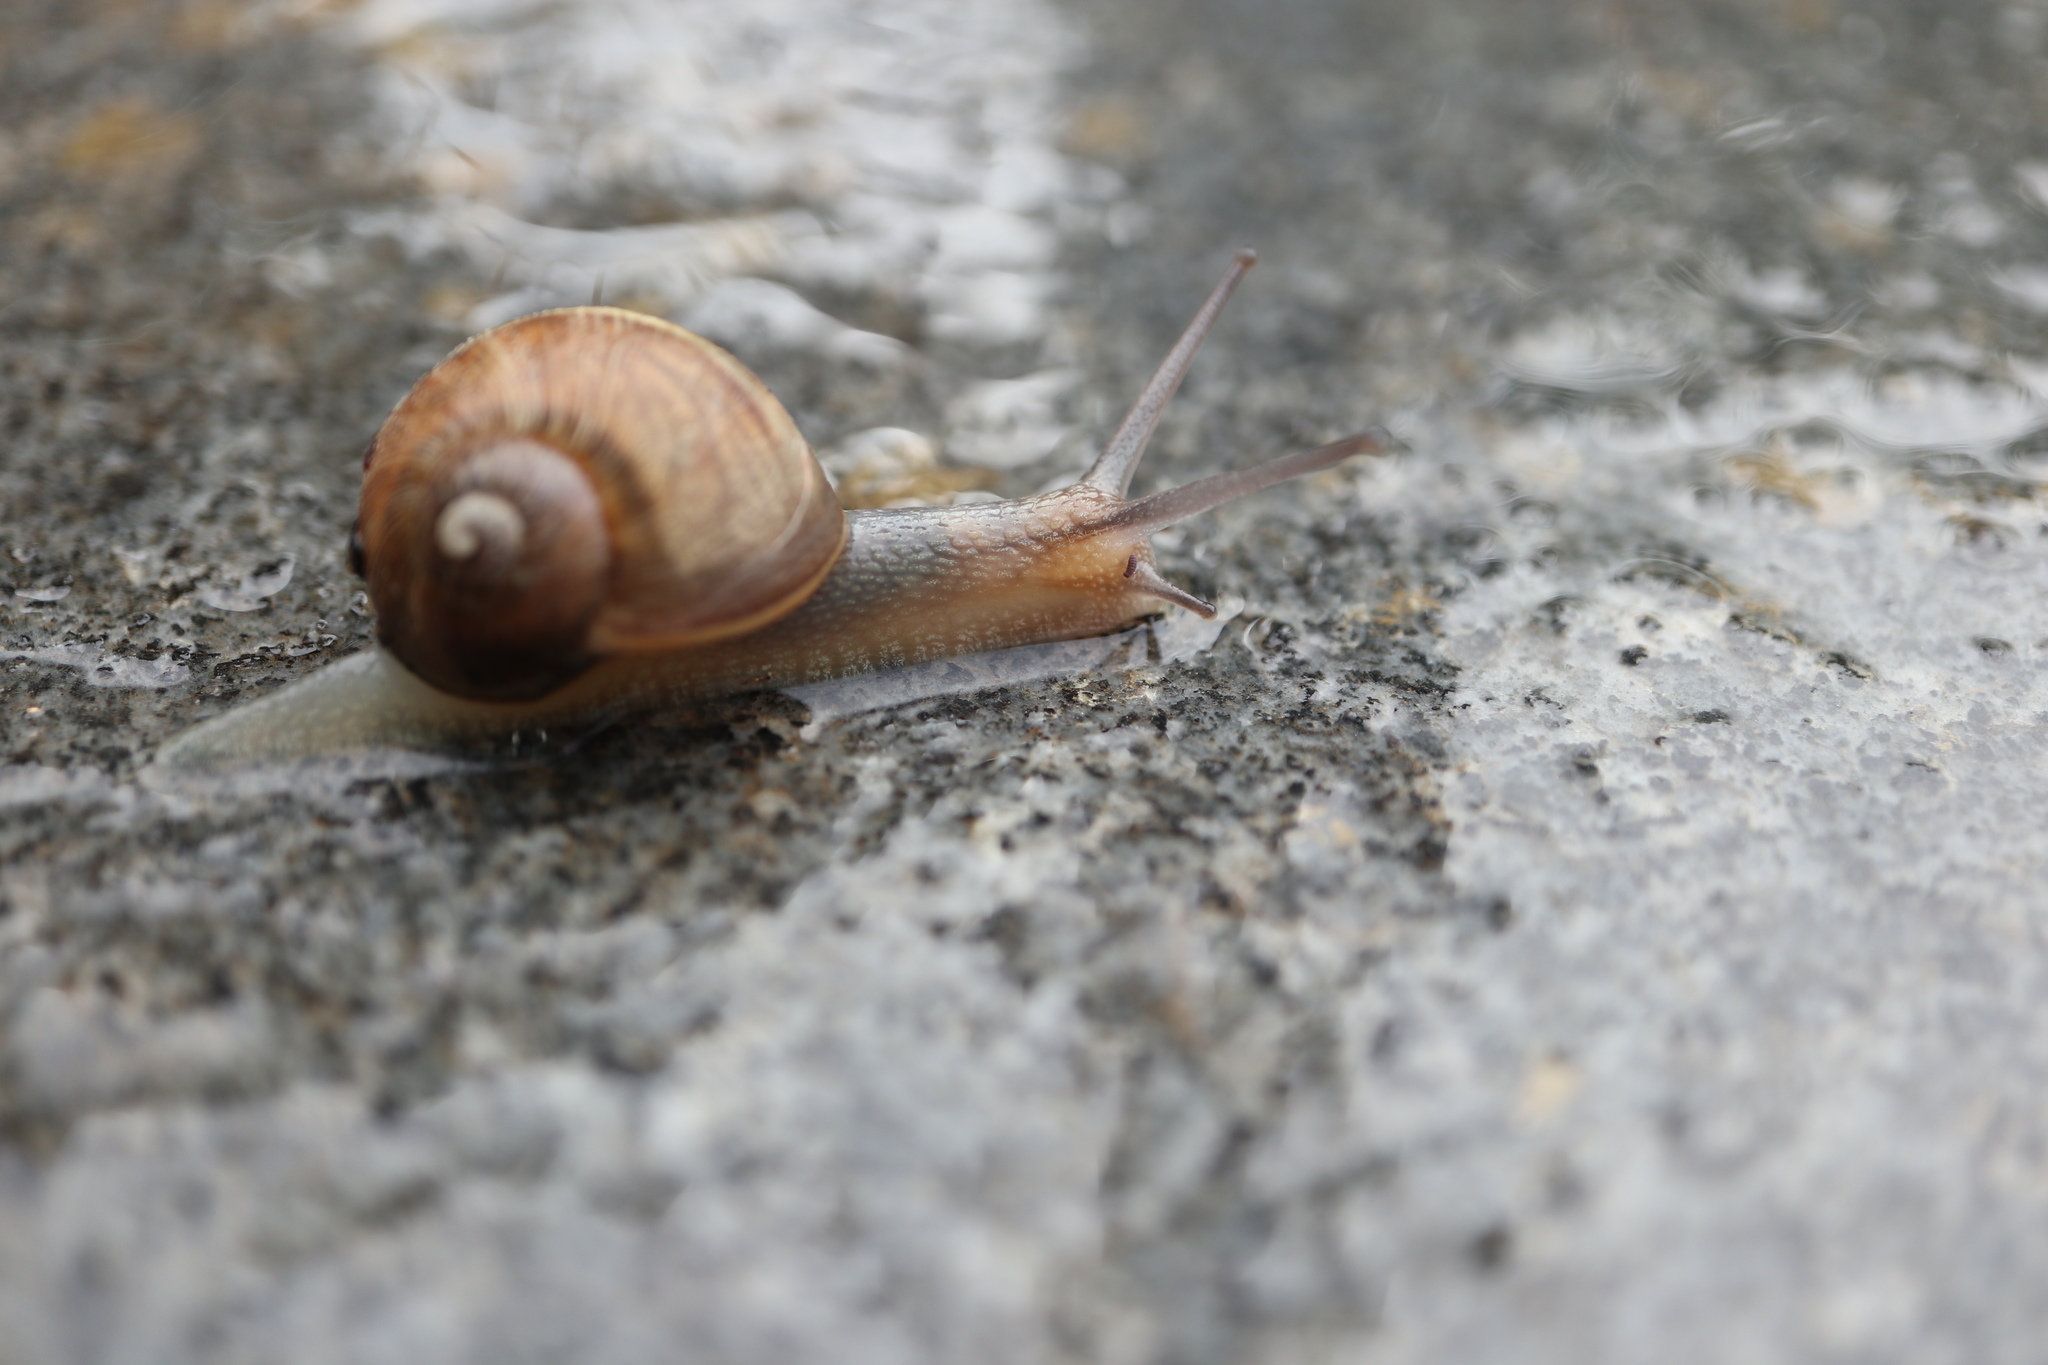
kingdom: Animalia
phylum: Mollusca
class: Gastropoda
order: Stylommatophora
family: Helicidae
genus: Cornu
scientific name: Cornu aspersum
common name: Brown garden snail
